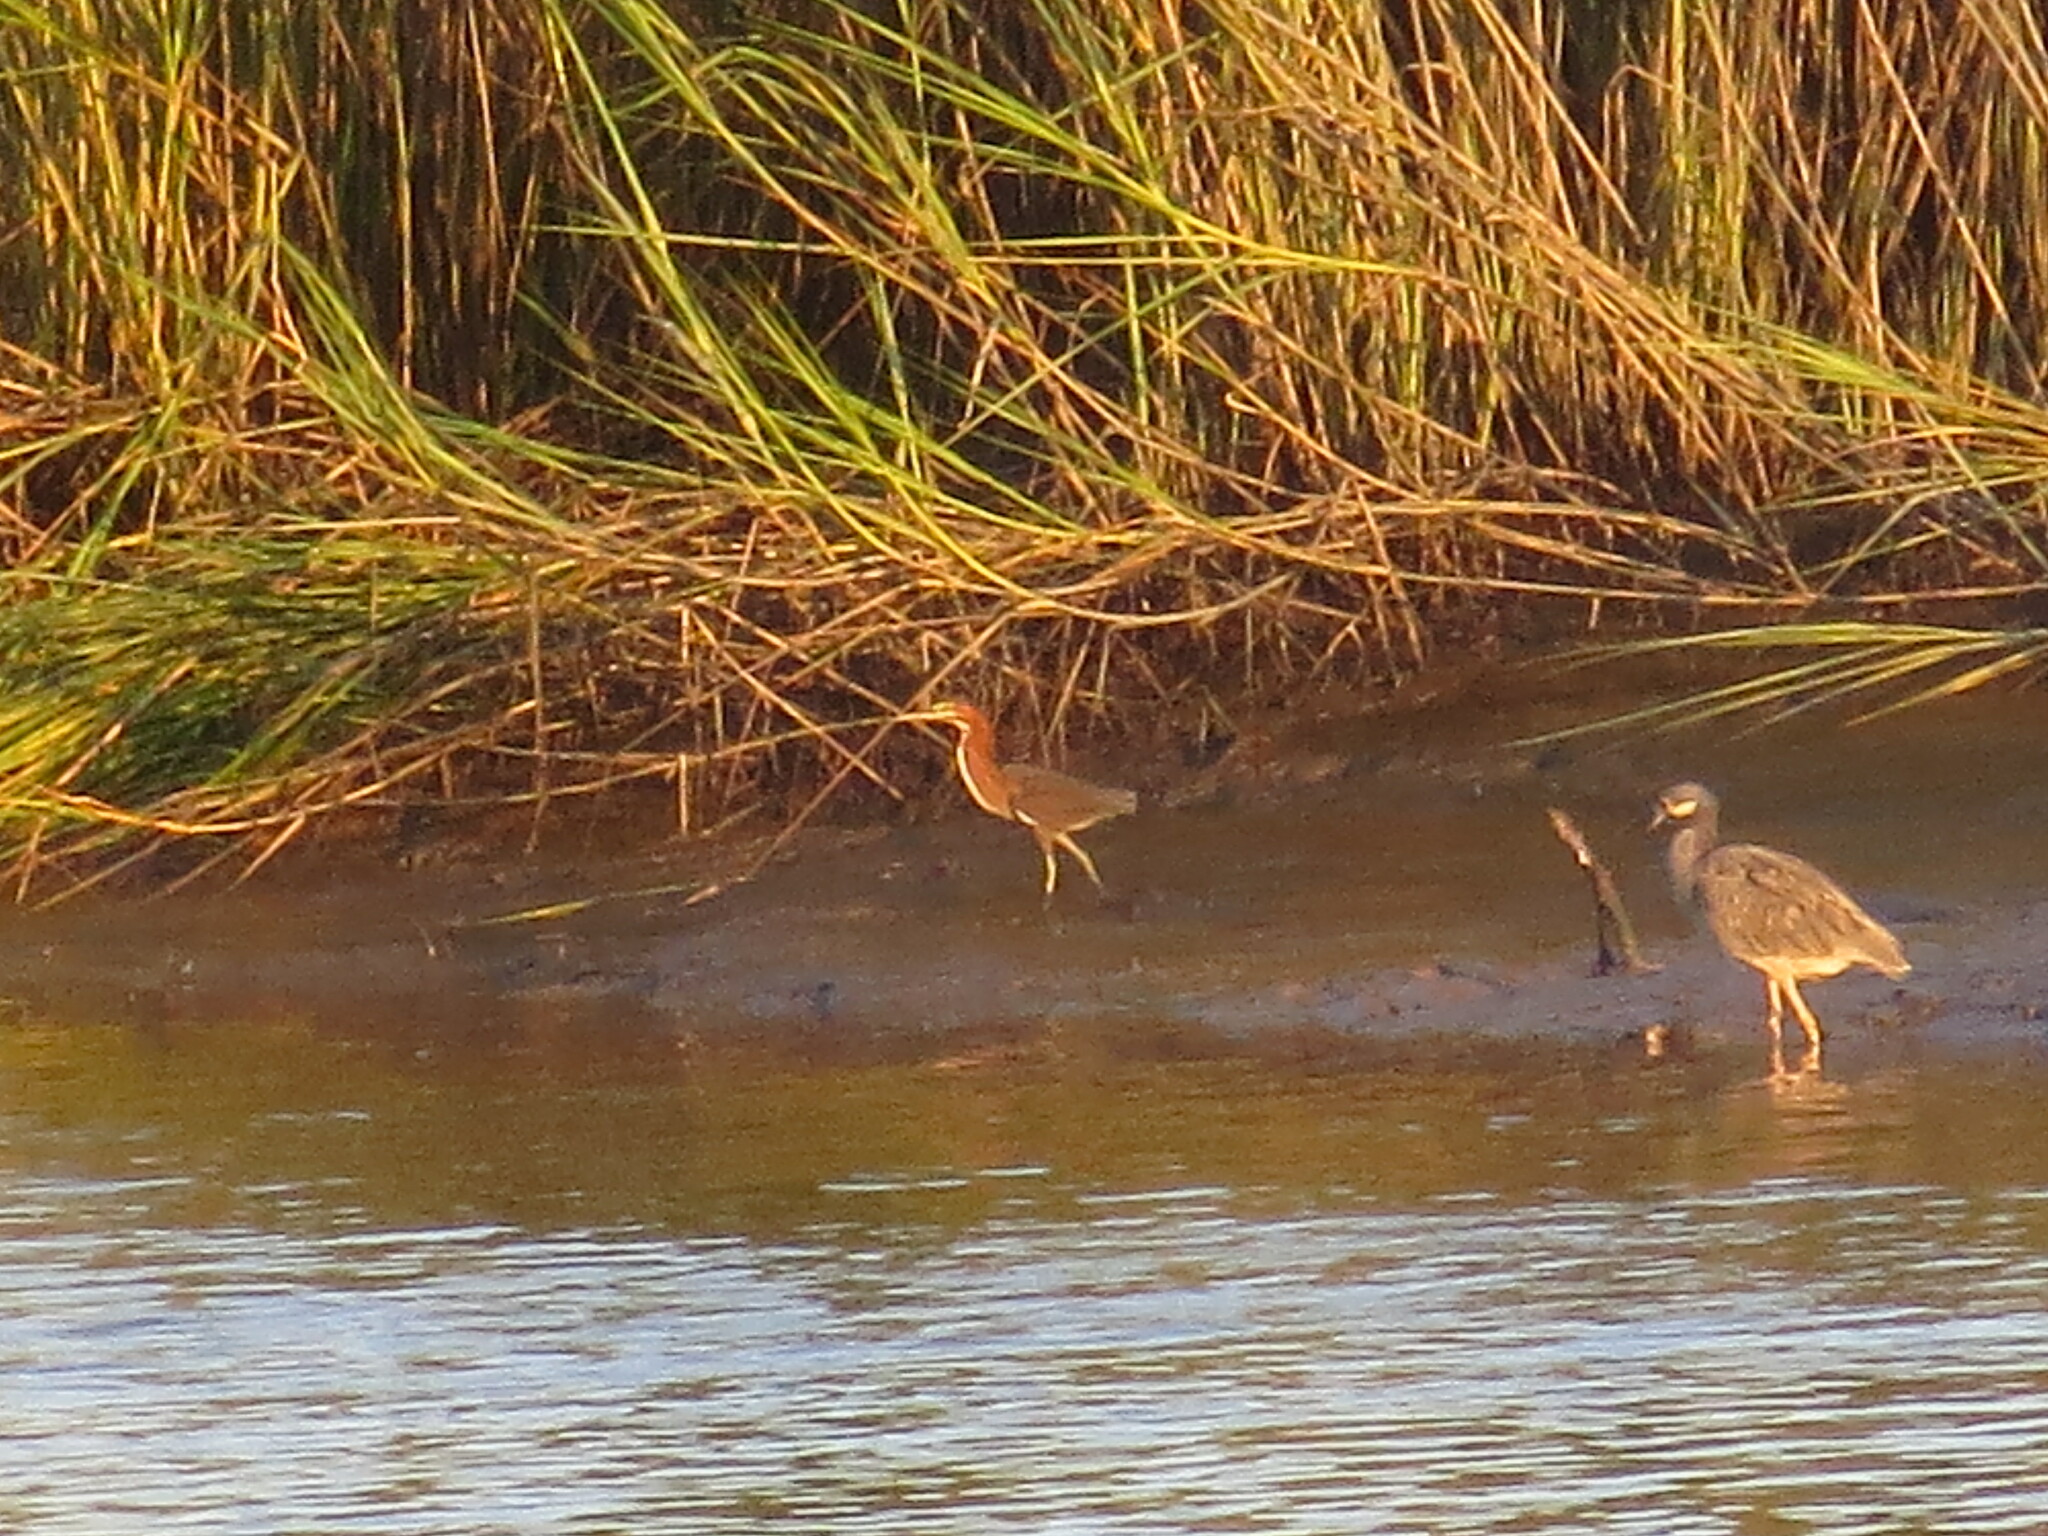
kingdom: Animalia
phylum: Chordata
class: Aves
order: Pelecaniformes
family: Ardeidae
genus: Nyctanassa
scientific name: Nyctanassa violacea
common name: Yellow-crowned night heron
